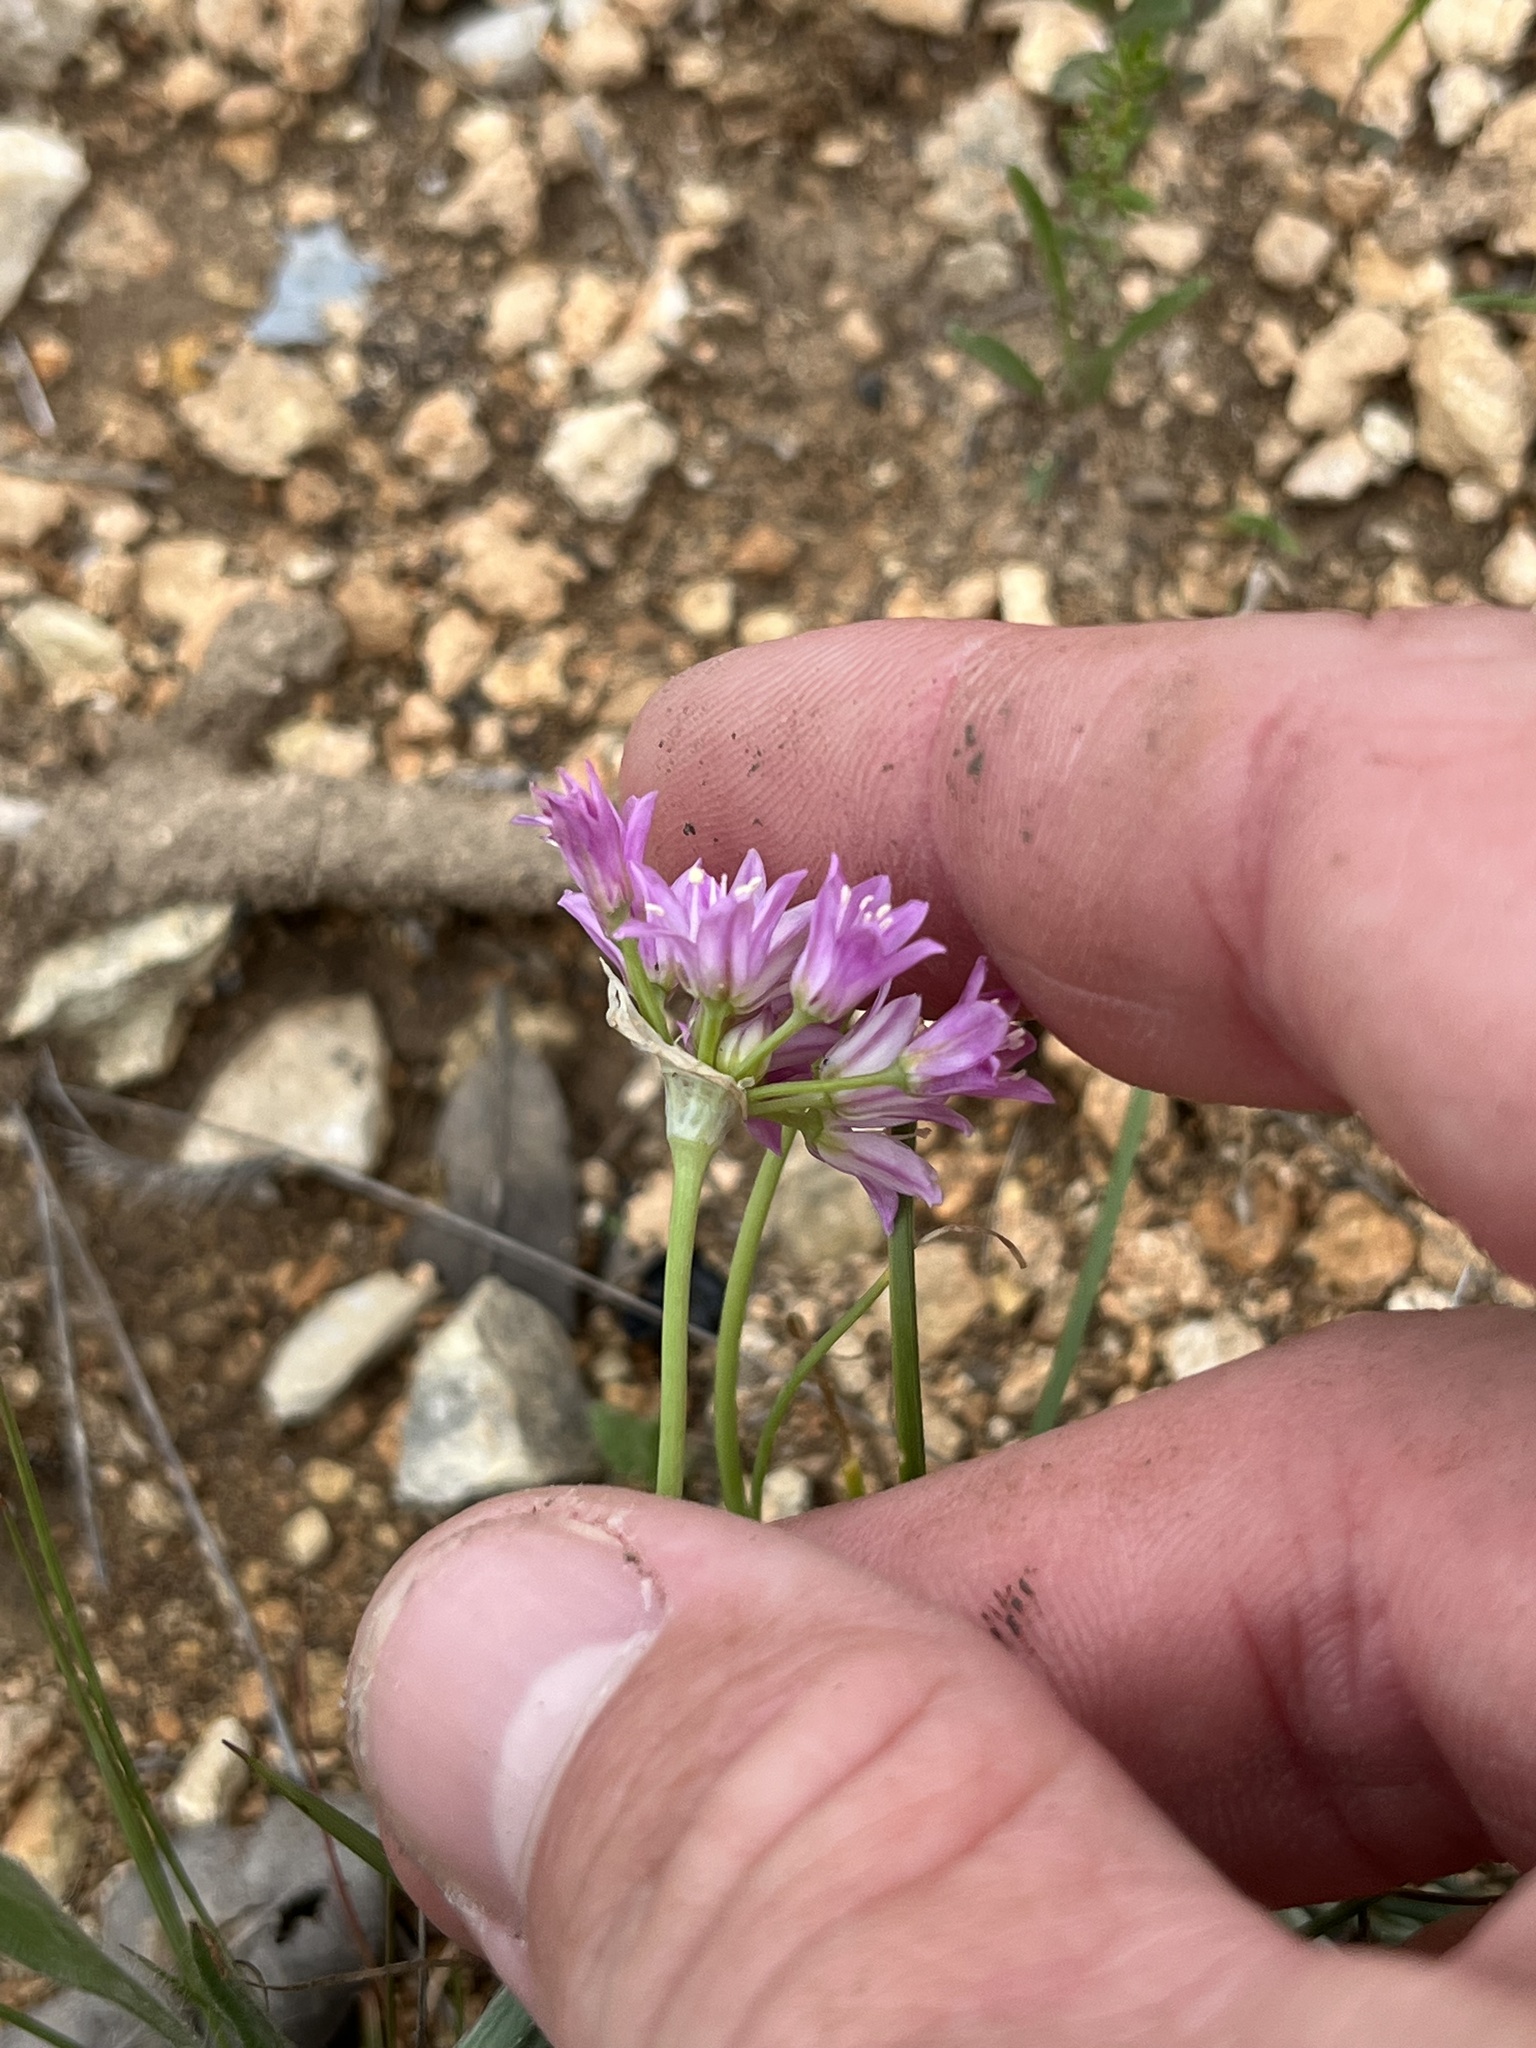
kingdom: Plantae
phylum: Tracheophyta
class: Liliopsida
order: Asparagales
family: Amaryllidaceae
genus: Allium
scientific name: Allium drummondii
